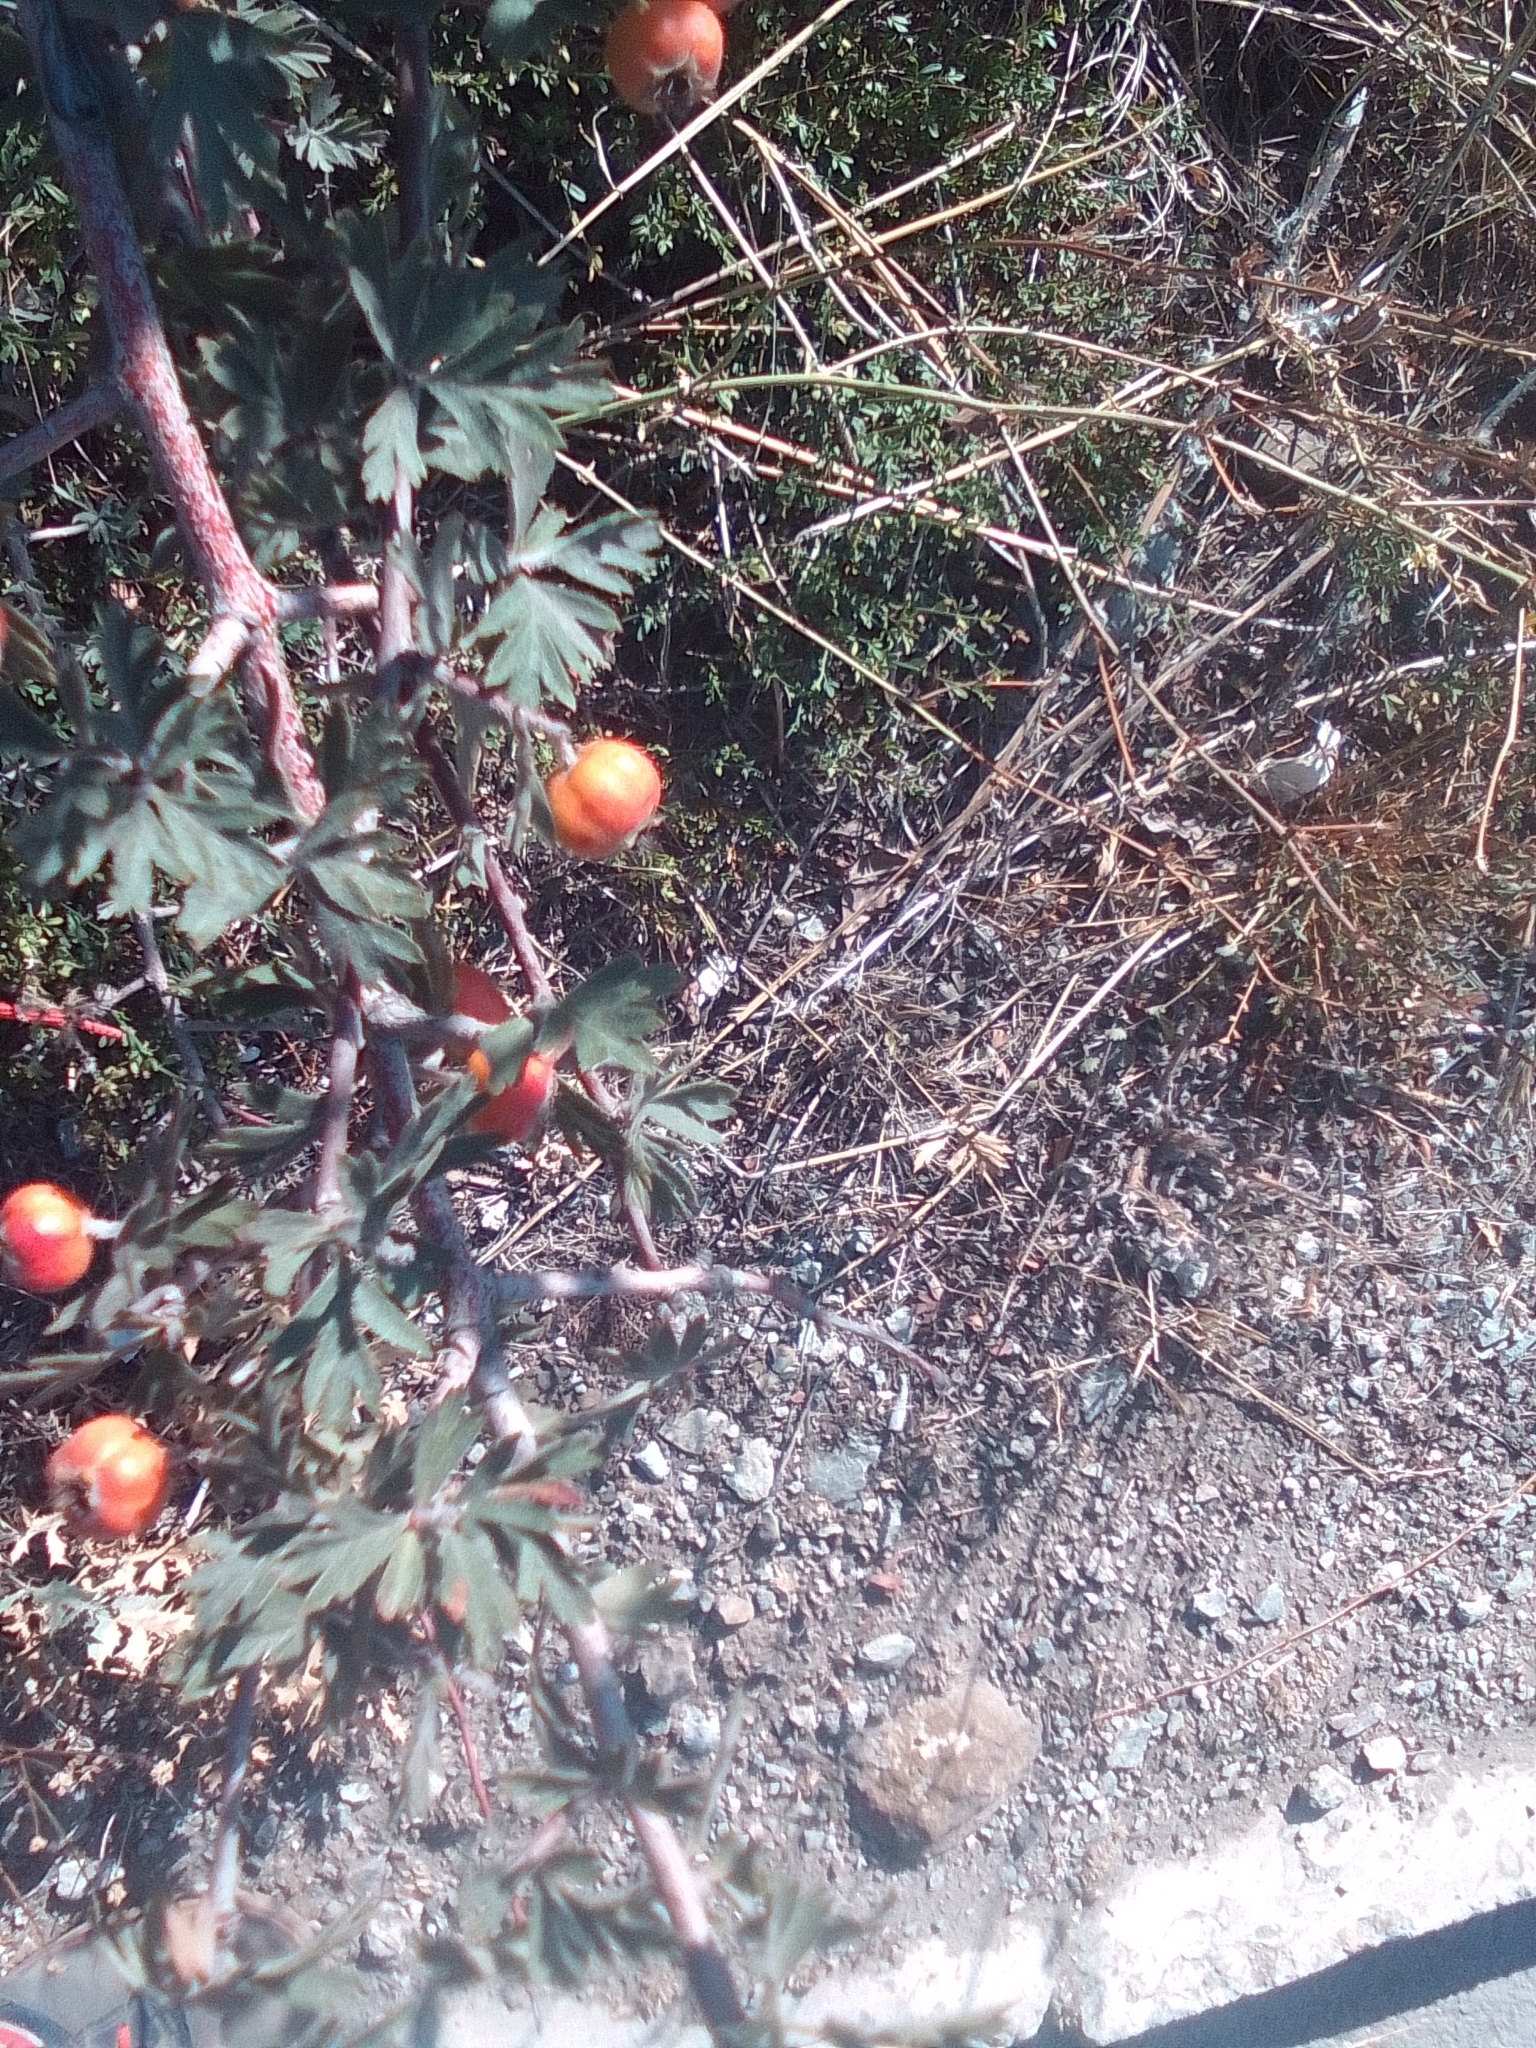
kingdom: Plantae
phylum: Tracheophyta
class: Magnoliopsida
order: Rosales
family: Rosaceae
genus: Crataegus
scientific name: Crataegus orientalis
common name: Oriental hawthorn
